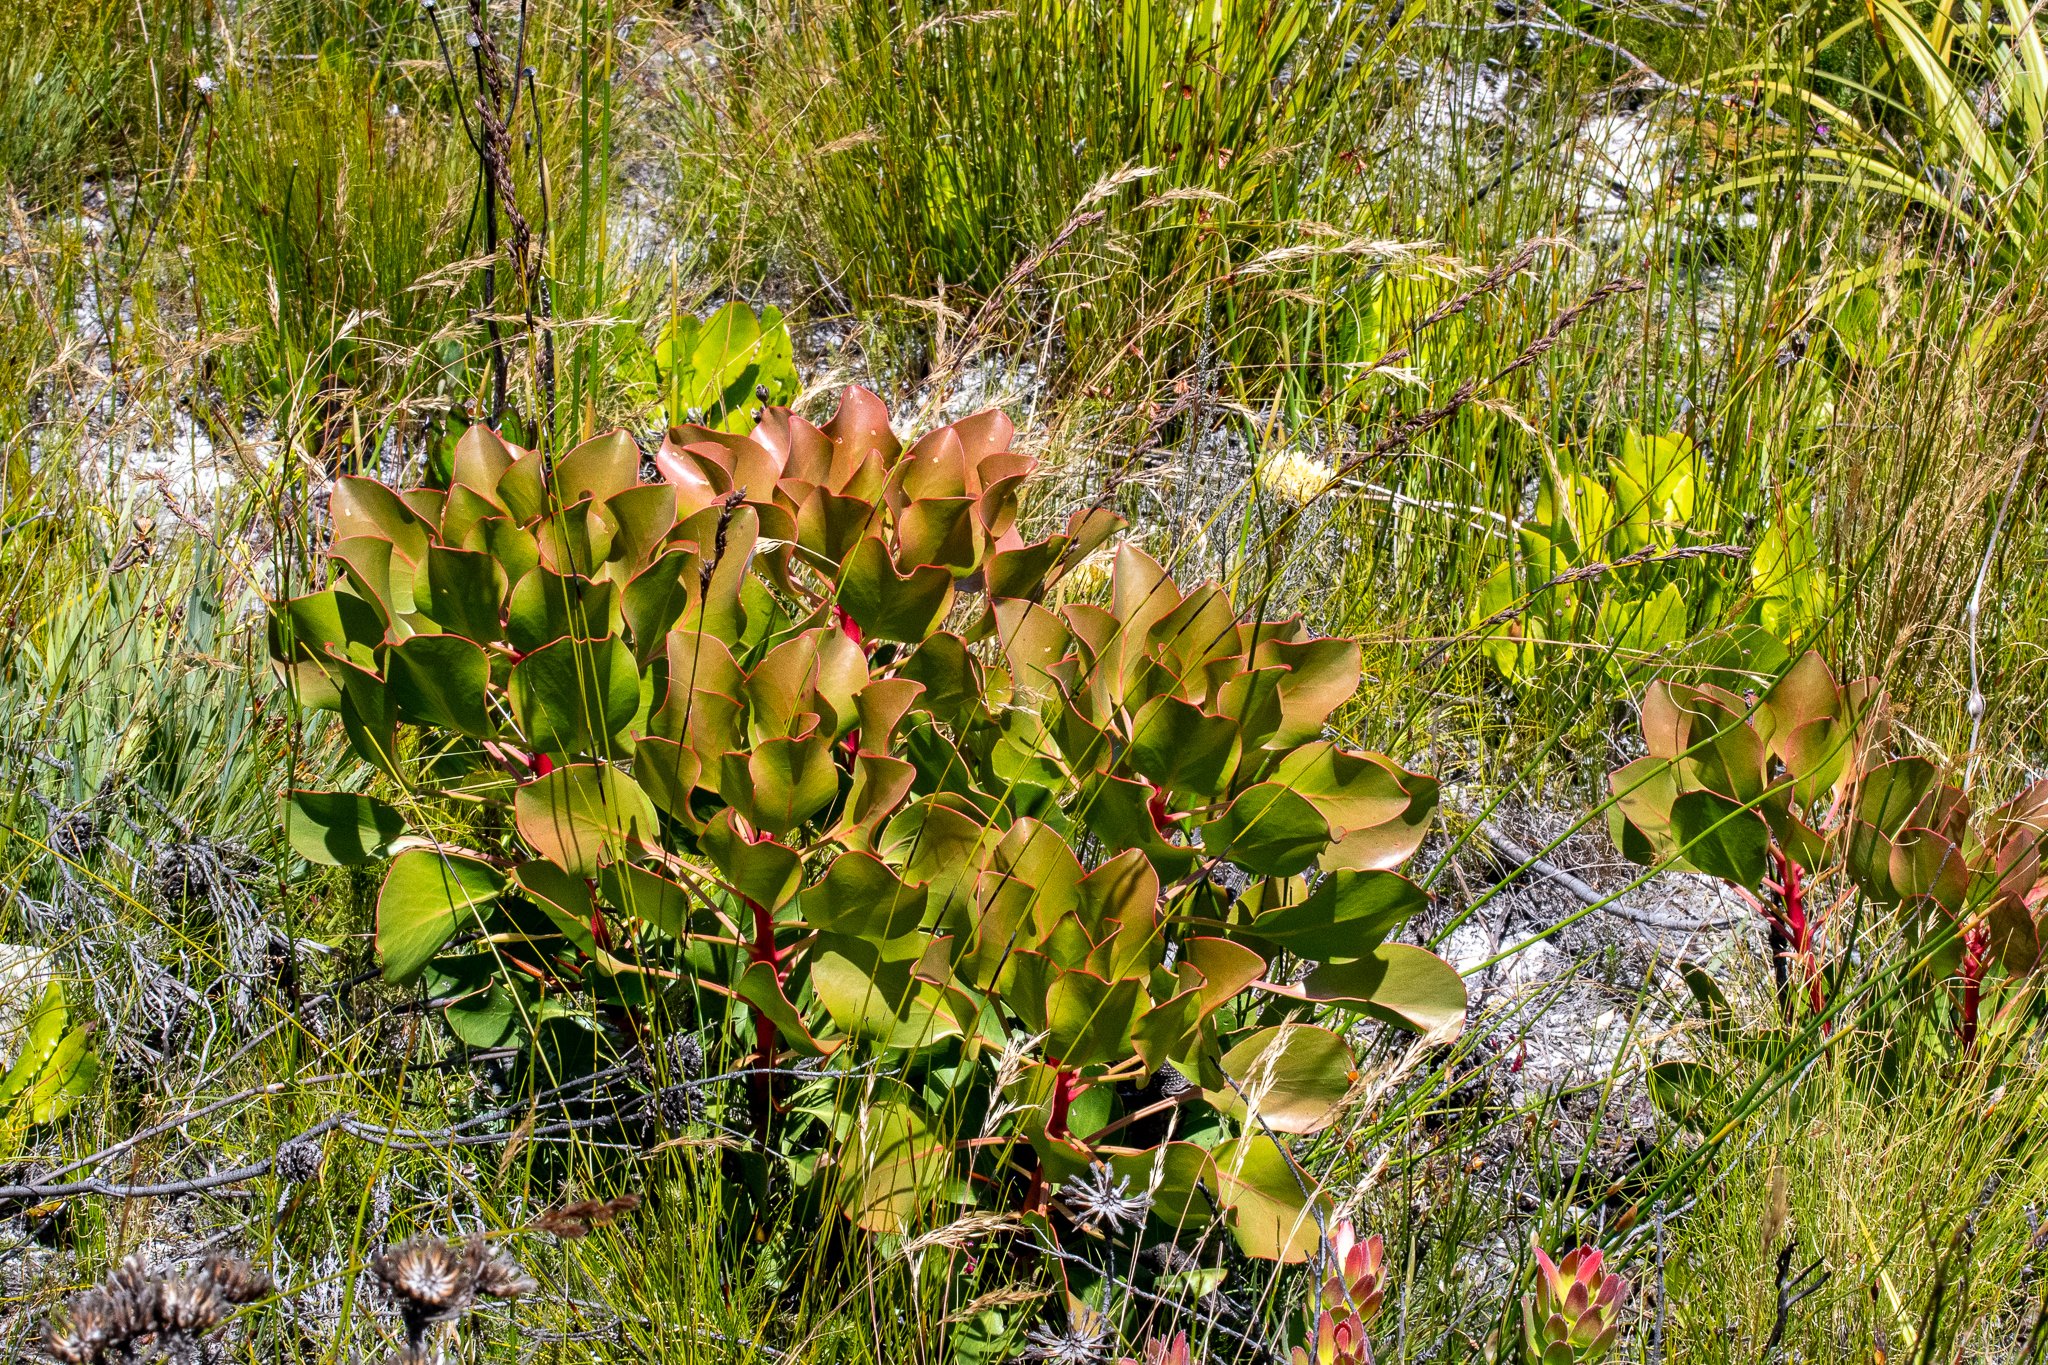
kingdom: Plantae
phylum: Tracheophyta
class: Magnoliopsida
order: Proteales
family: Proteaceae
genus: Protea
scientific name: Protea cynaroides
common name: King protea
